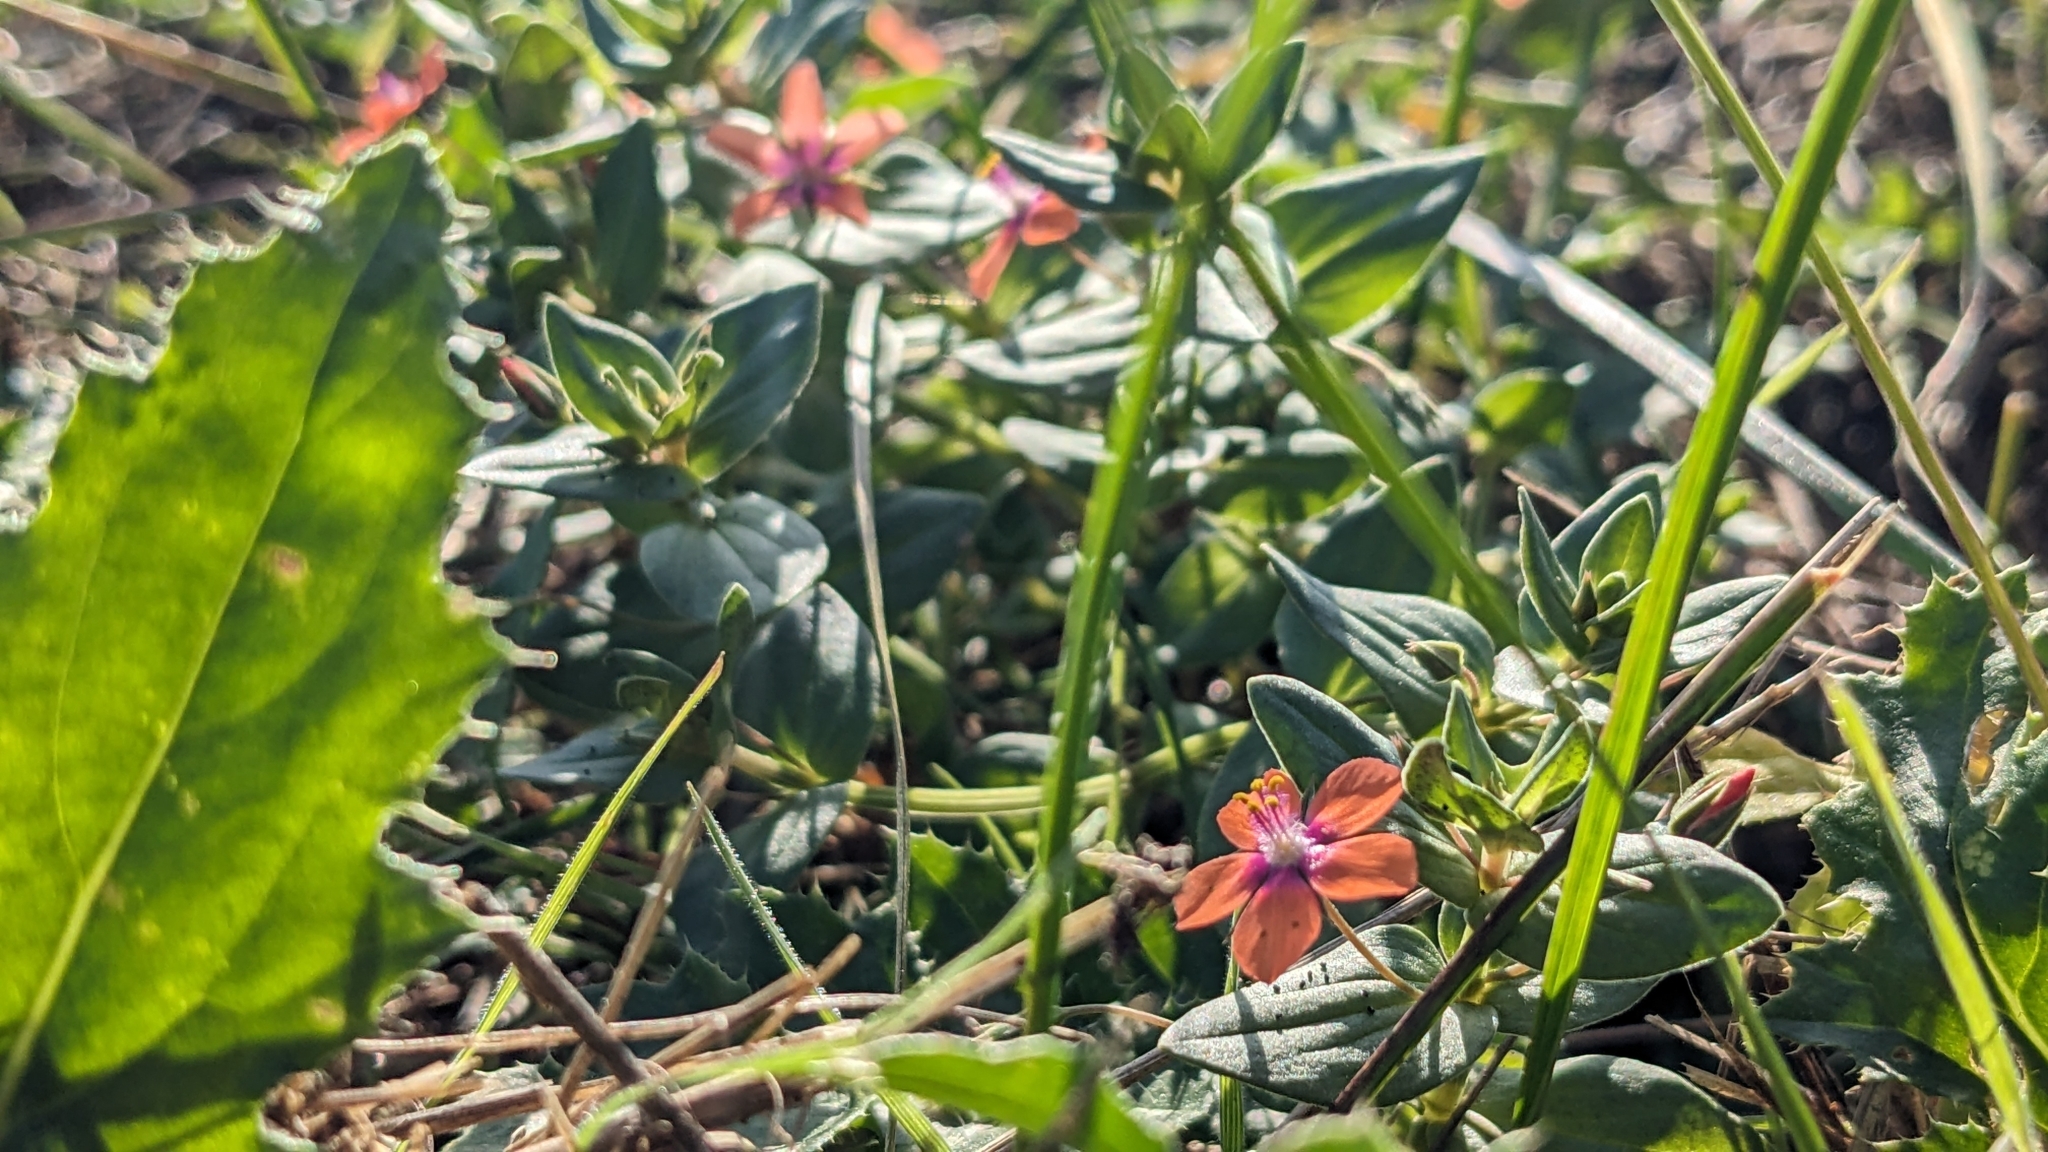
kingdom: Plantae
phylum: Tracheophyta
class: Magnoliopsida
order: Ericales
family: Primulaceae
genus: Lysimachia
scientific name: Lysimachia arvensis
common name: Scarlet pimpernel
